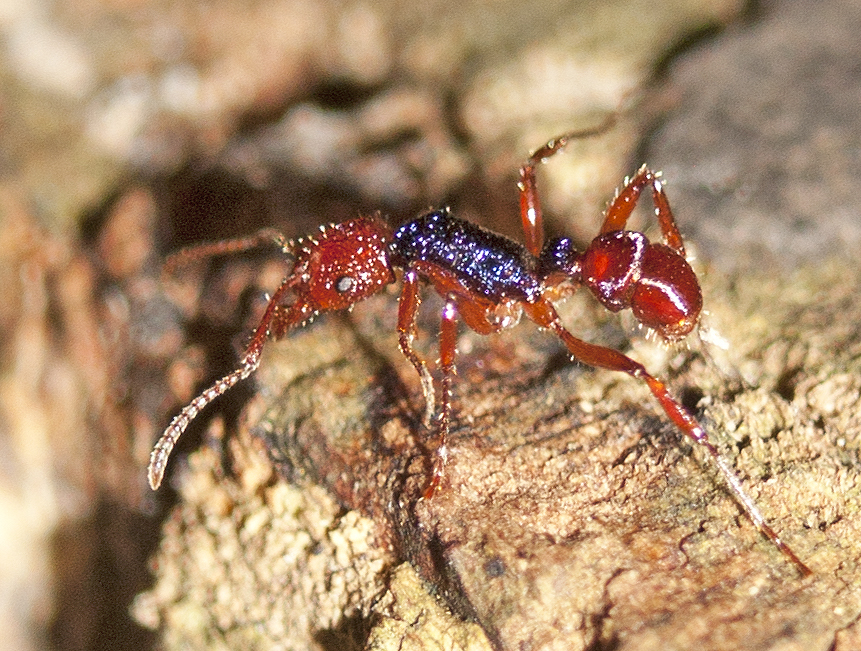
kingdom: Animalia
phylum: Arthropoda
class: Insecta
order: Hymenoptera
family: Formicidae
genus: Rhytidoponera
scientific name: Rhytidoponera croesus
